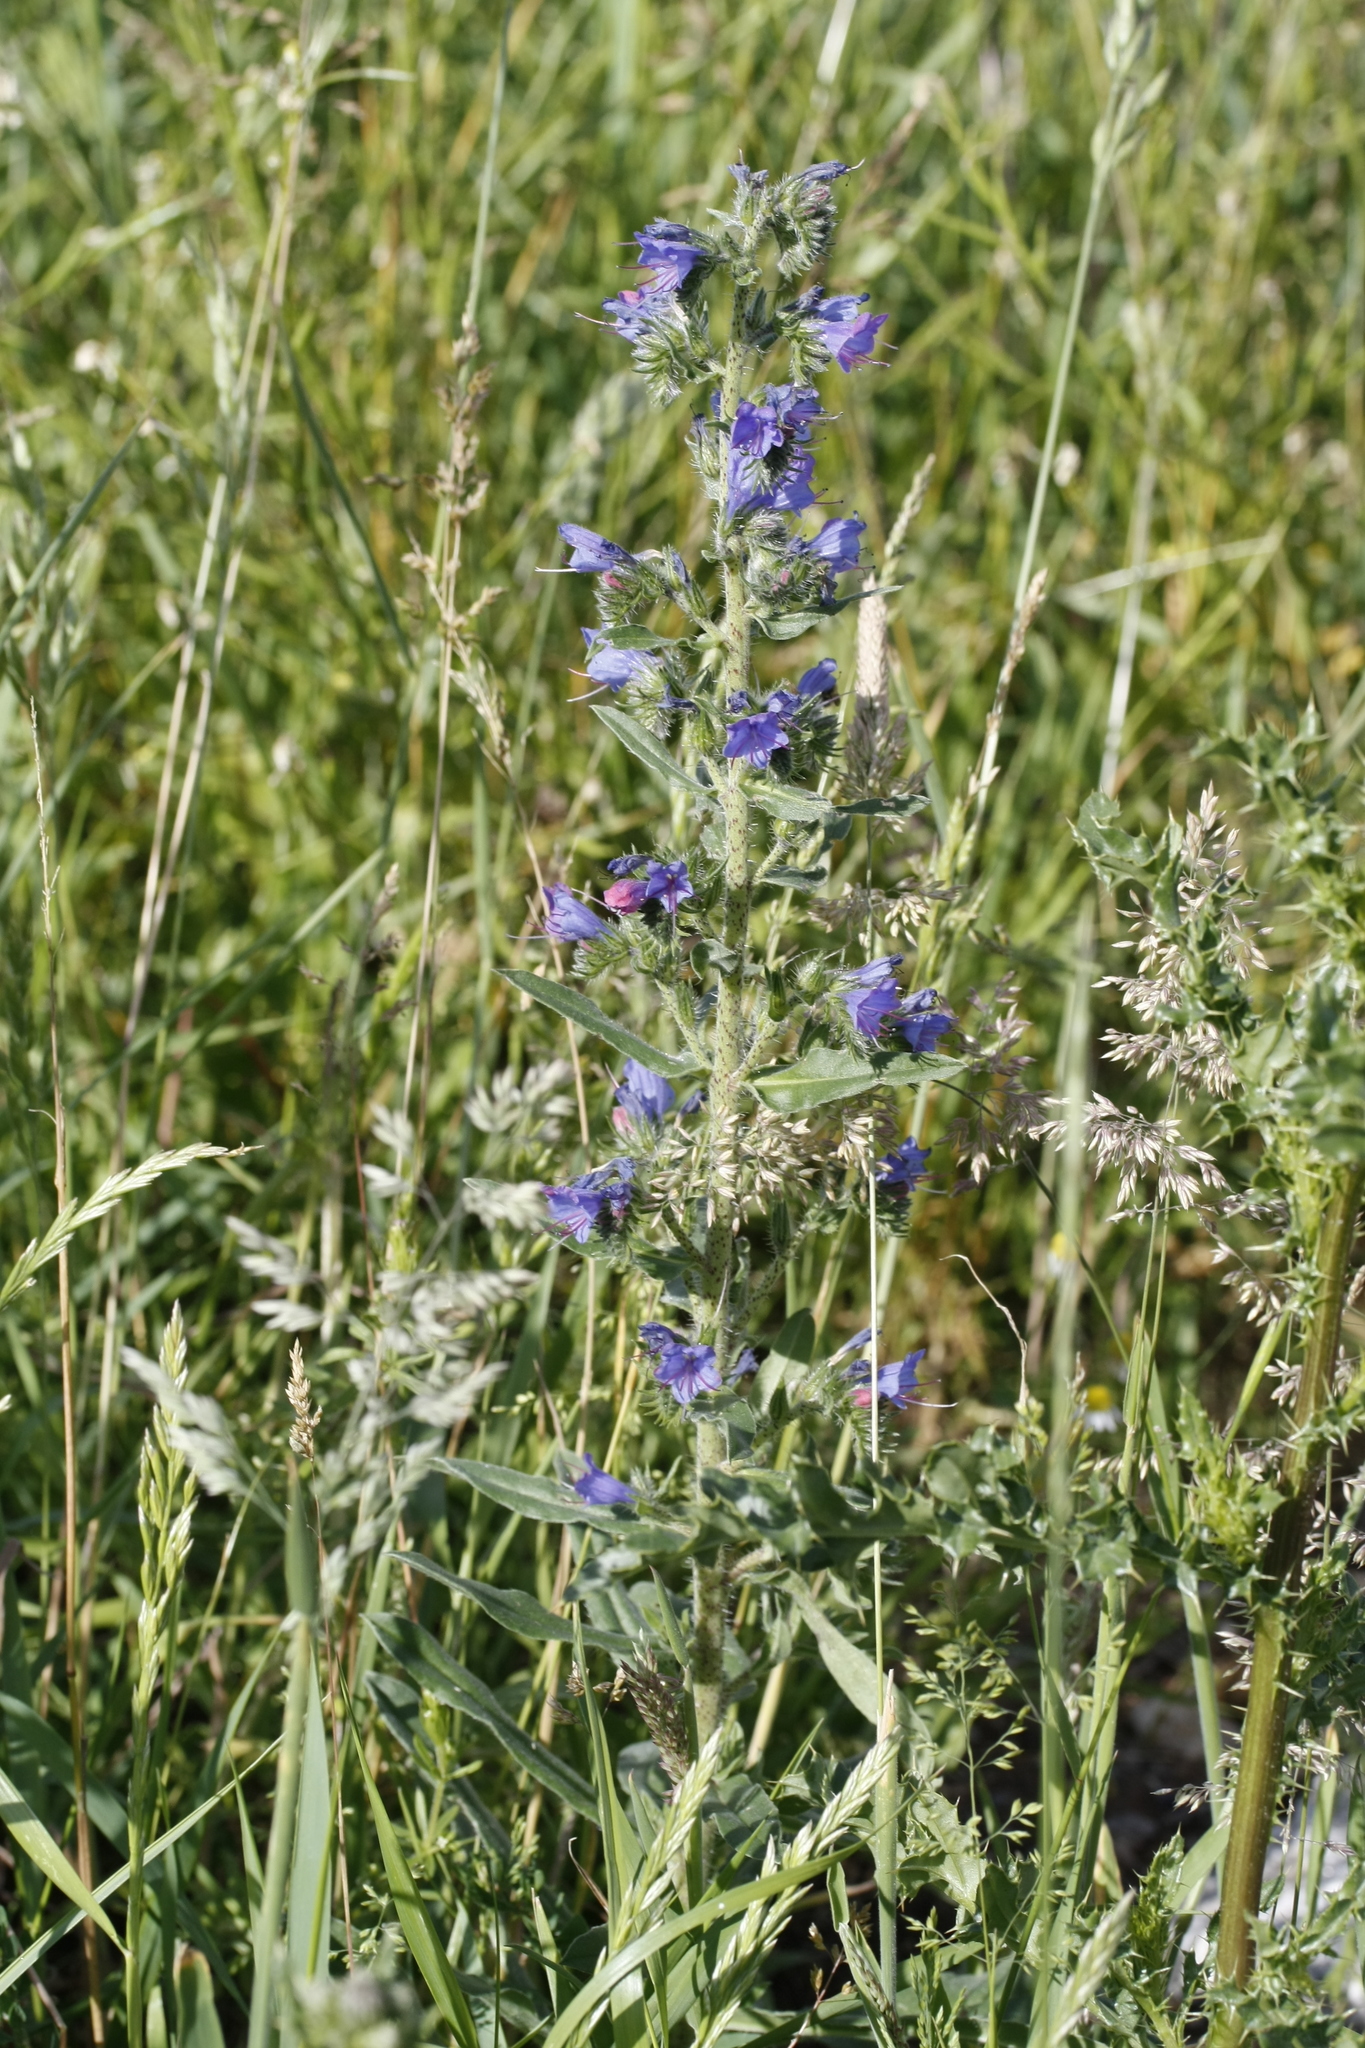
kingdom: Plantae
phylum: Tracheophyta
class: Magnoliopsida
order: Boraginales
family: Boraginaceae
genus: Echium
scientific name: Echium vulgare
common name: Common viper's bugloss
